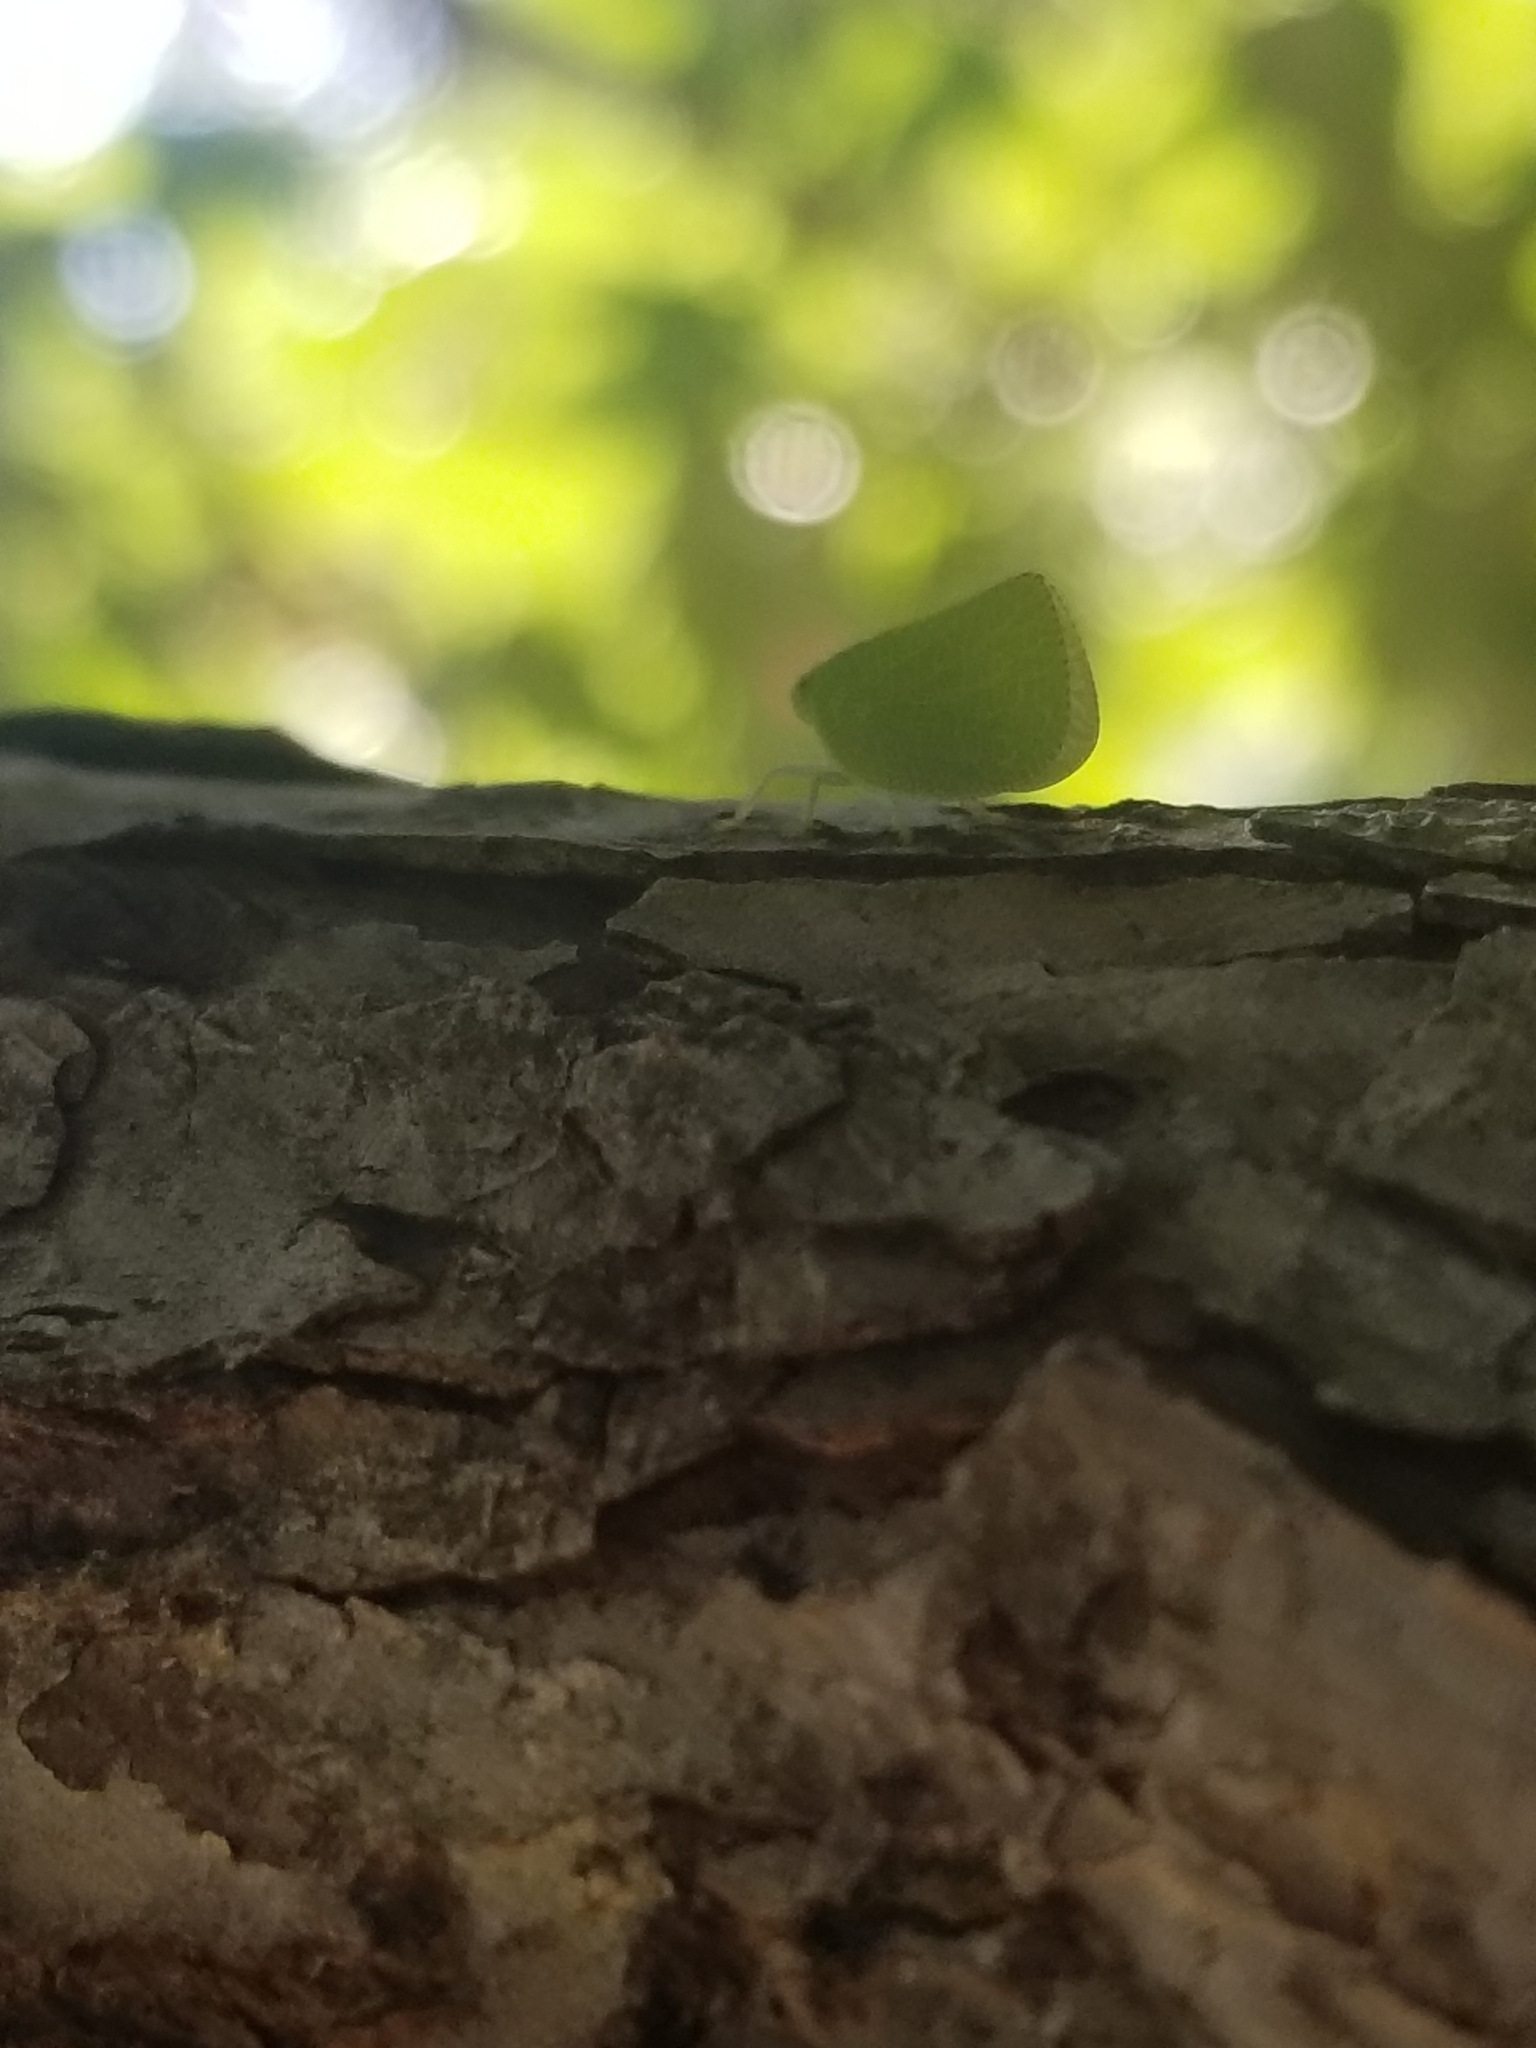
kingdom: Animalia
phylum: Arthropoda
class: Insecta
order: Hemiptera
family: Acanaloniidae
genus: Acanalonia
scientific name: Acanalonia conica
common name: Green cone-headed planthopper
